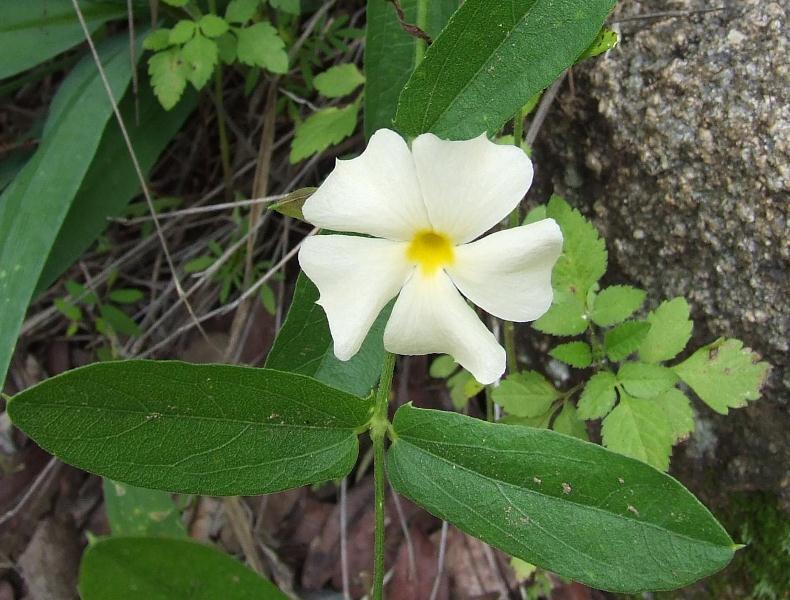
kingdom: Plantae
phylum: Tracheophyta
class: Magnoliopsida
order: Lamiales
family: Acanthaceae
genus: Thunbergia
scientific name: Thunbergia huillensis
